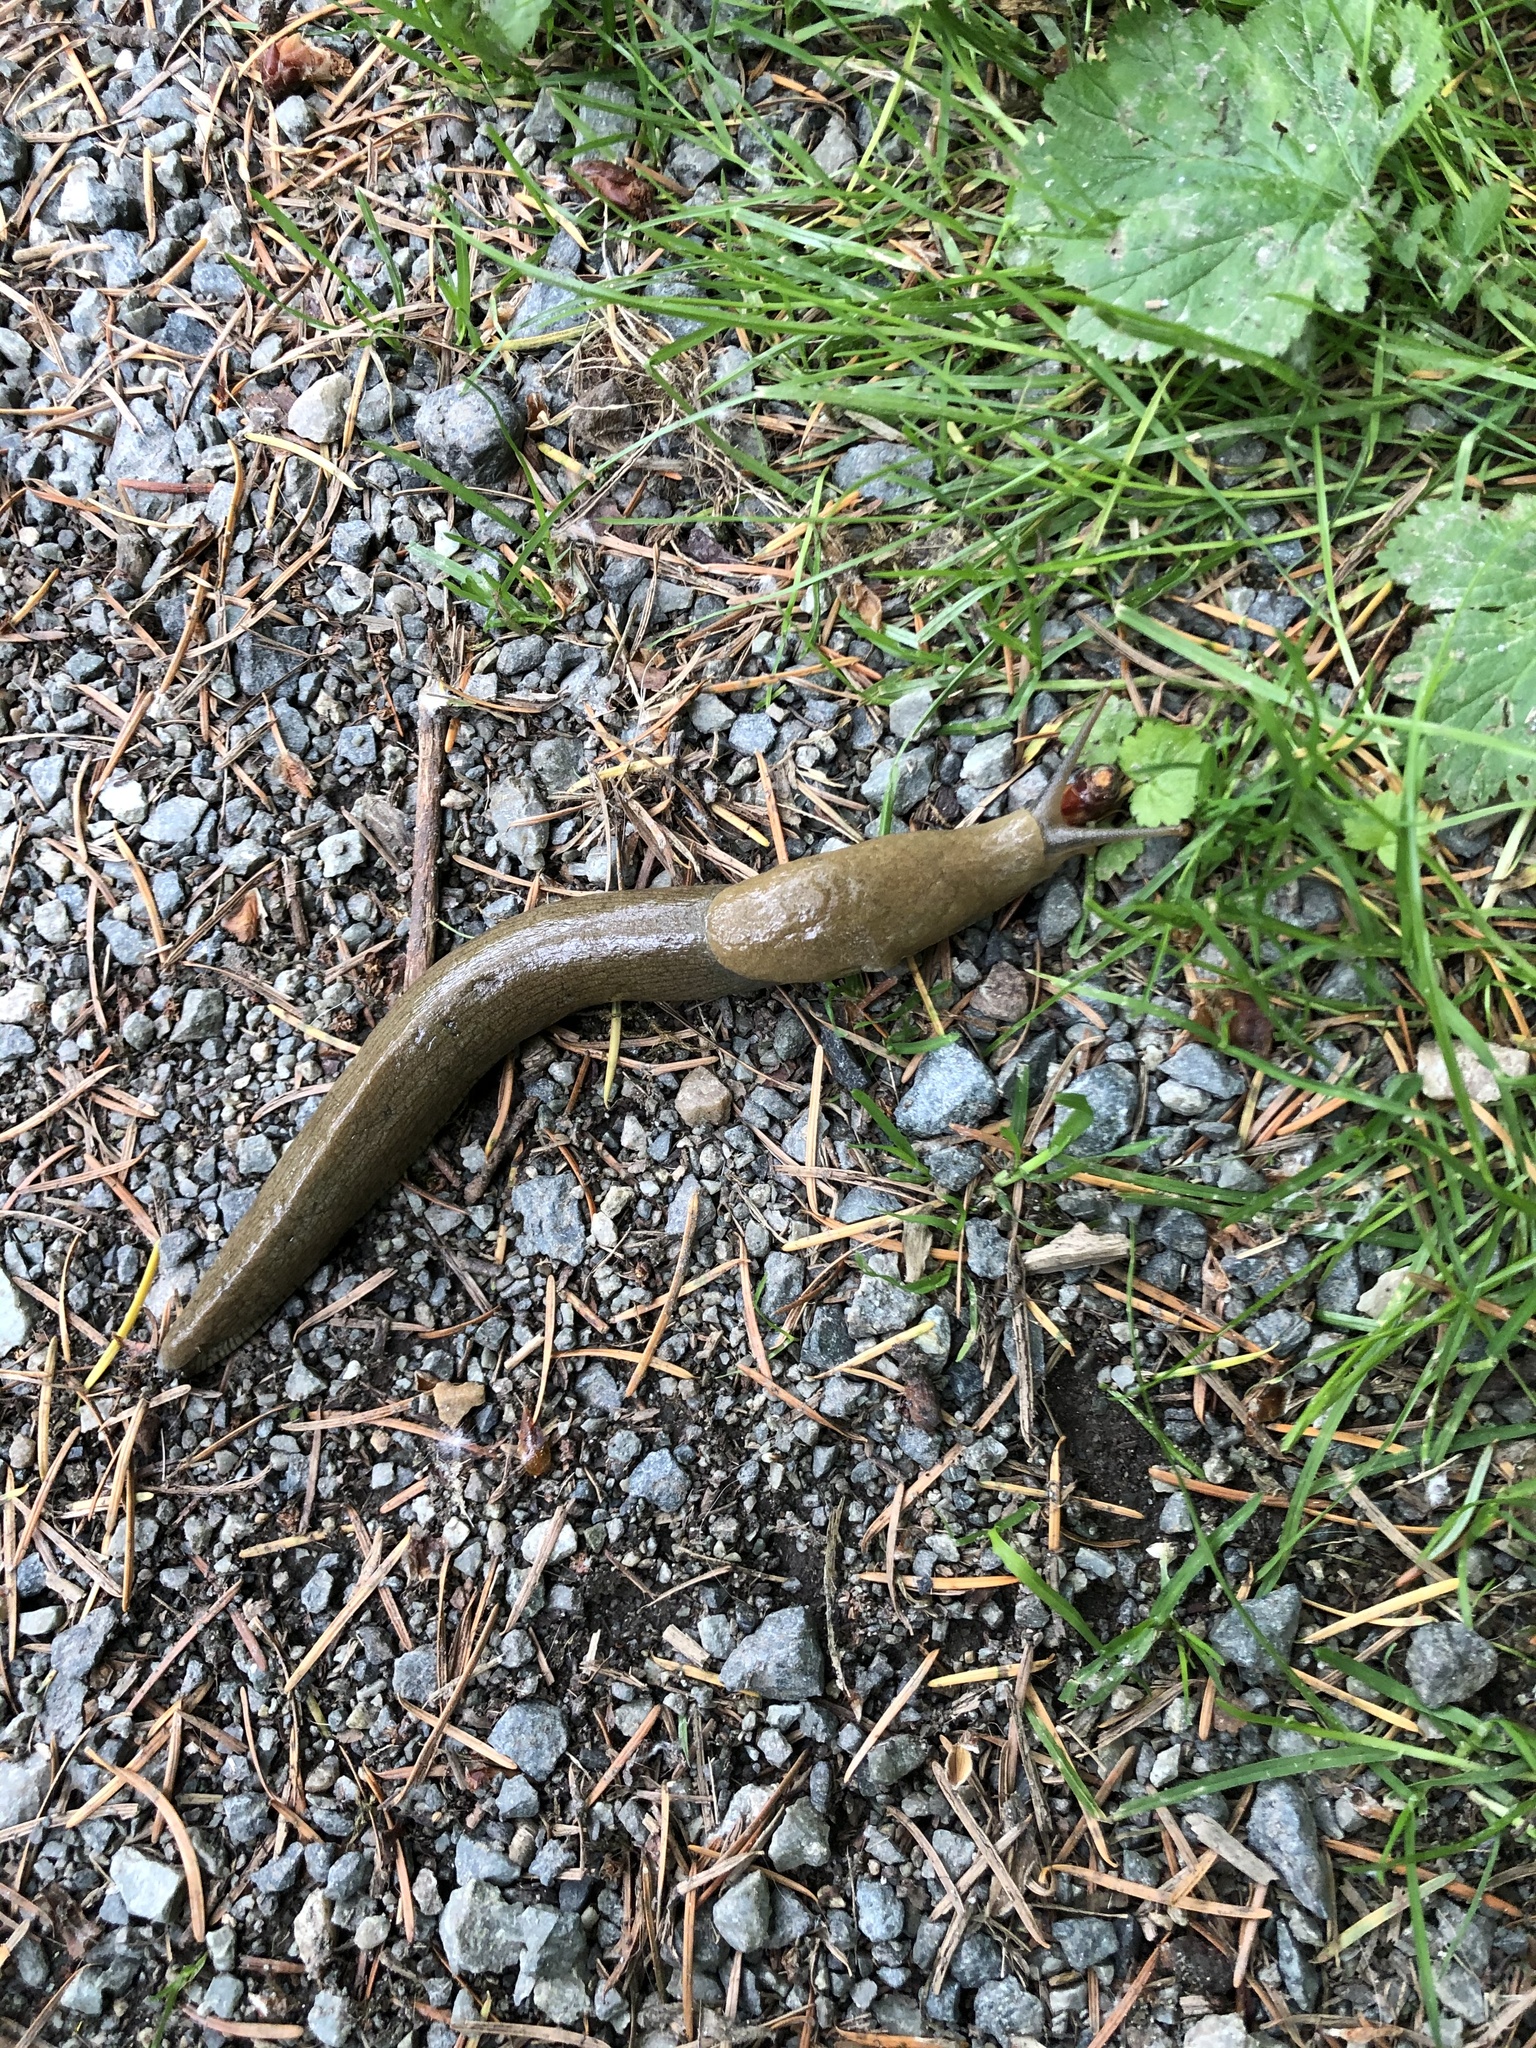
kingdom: Animalia
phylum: Mollusca
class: Gastropoda
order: Stylommatophora
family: Ariolimacidae
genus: Ariolimax
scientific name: Ariolimax columbianus
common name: Pacific banana slug
